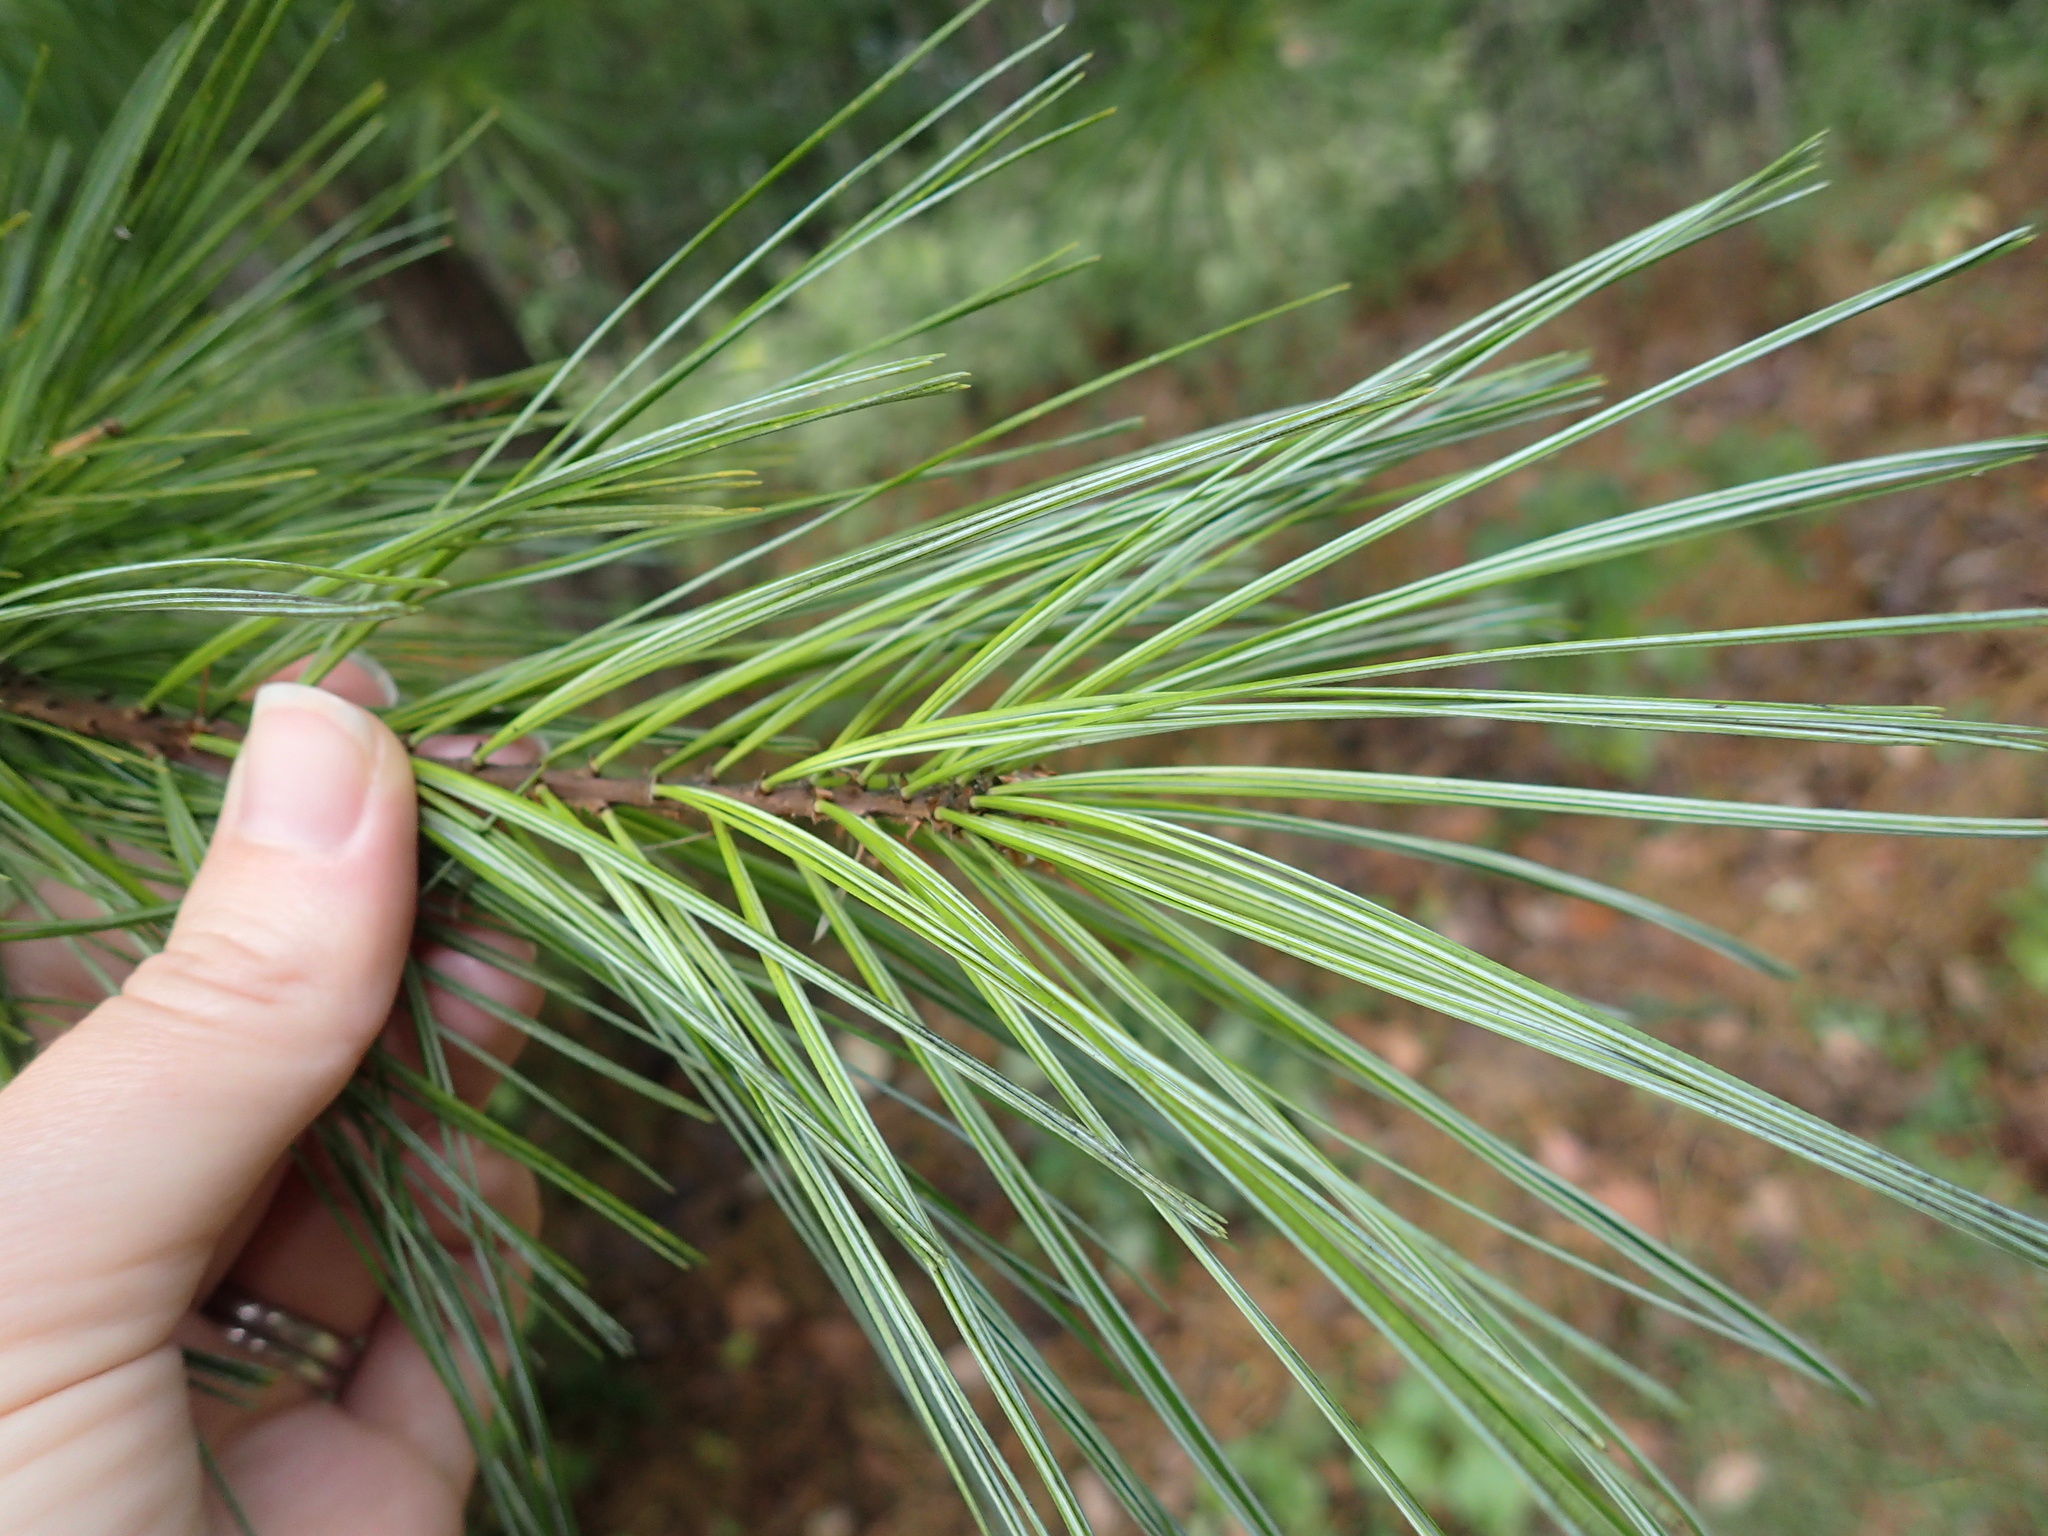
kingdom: Plantae
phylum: Tracheophyta
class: Pinopsida
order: Pinales
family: Pinaceae
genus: Pinus
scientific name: Pinus strobus
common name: Weymouth pine
